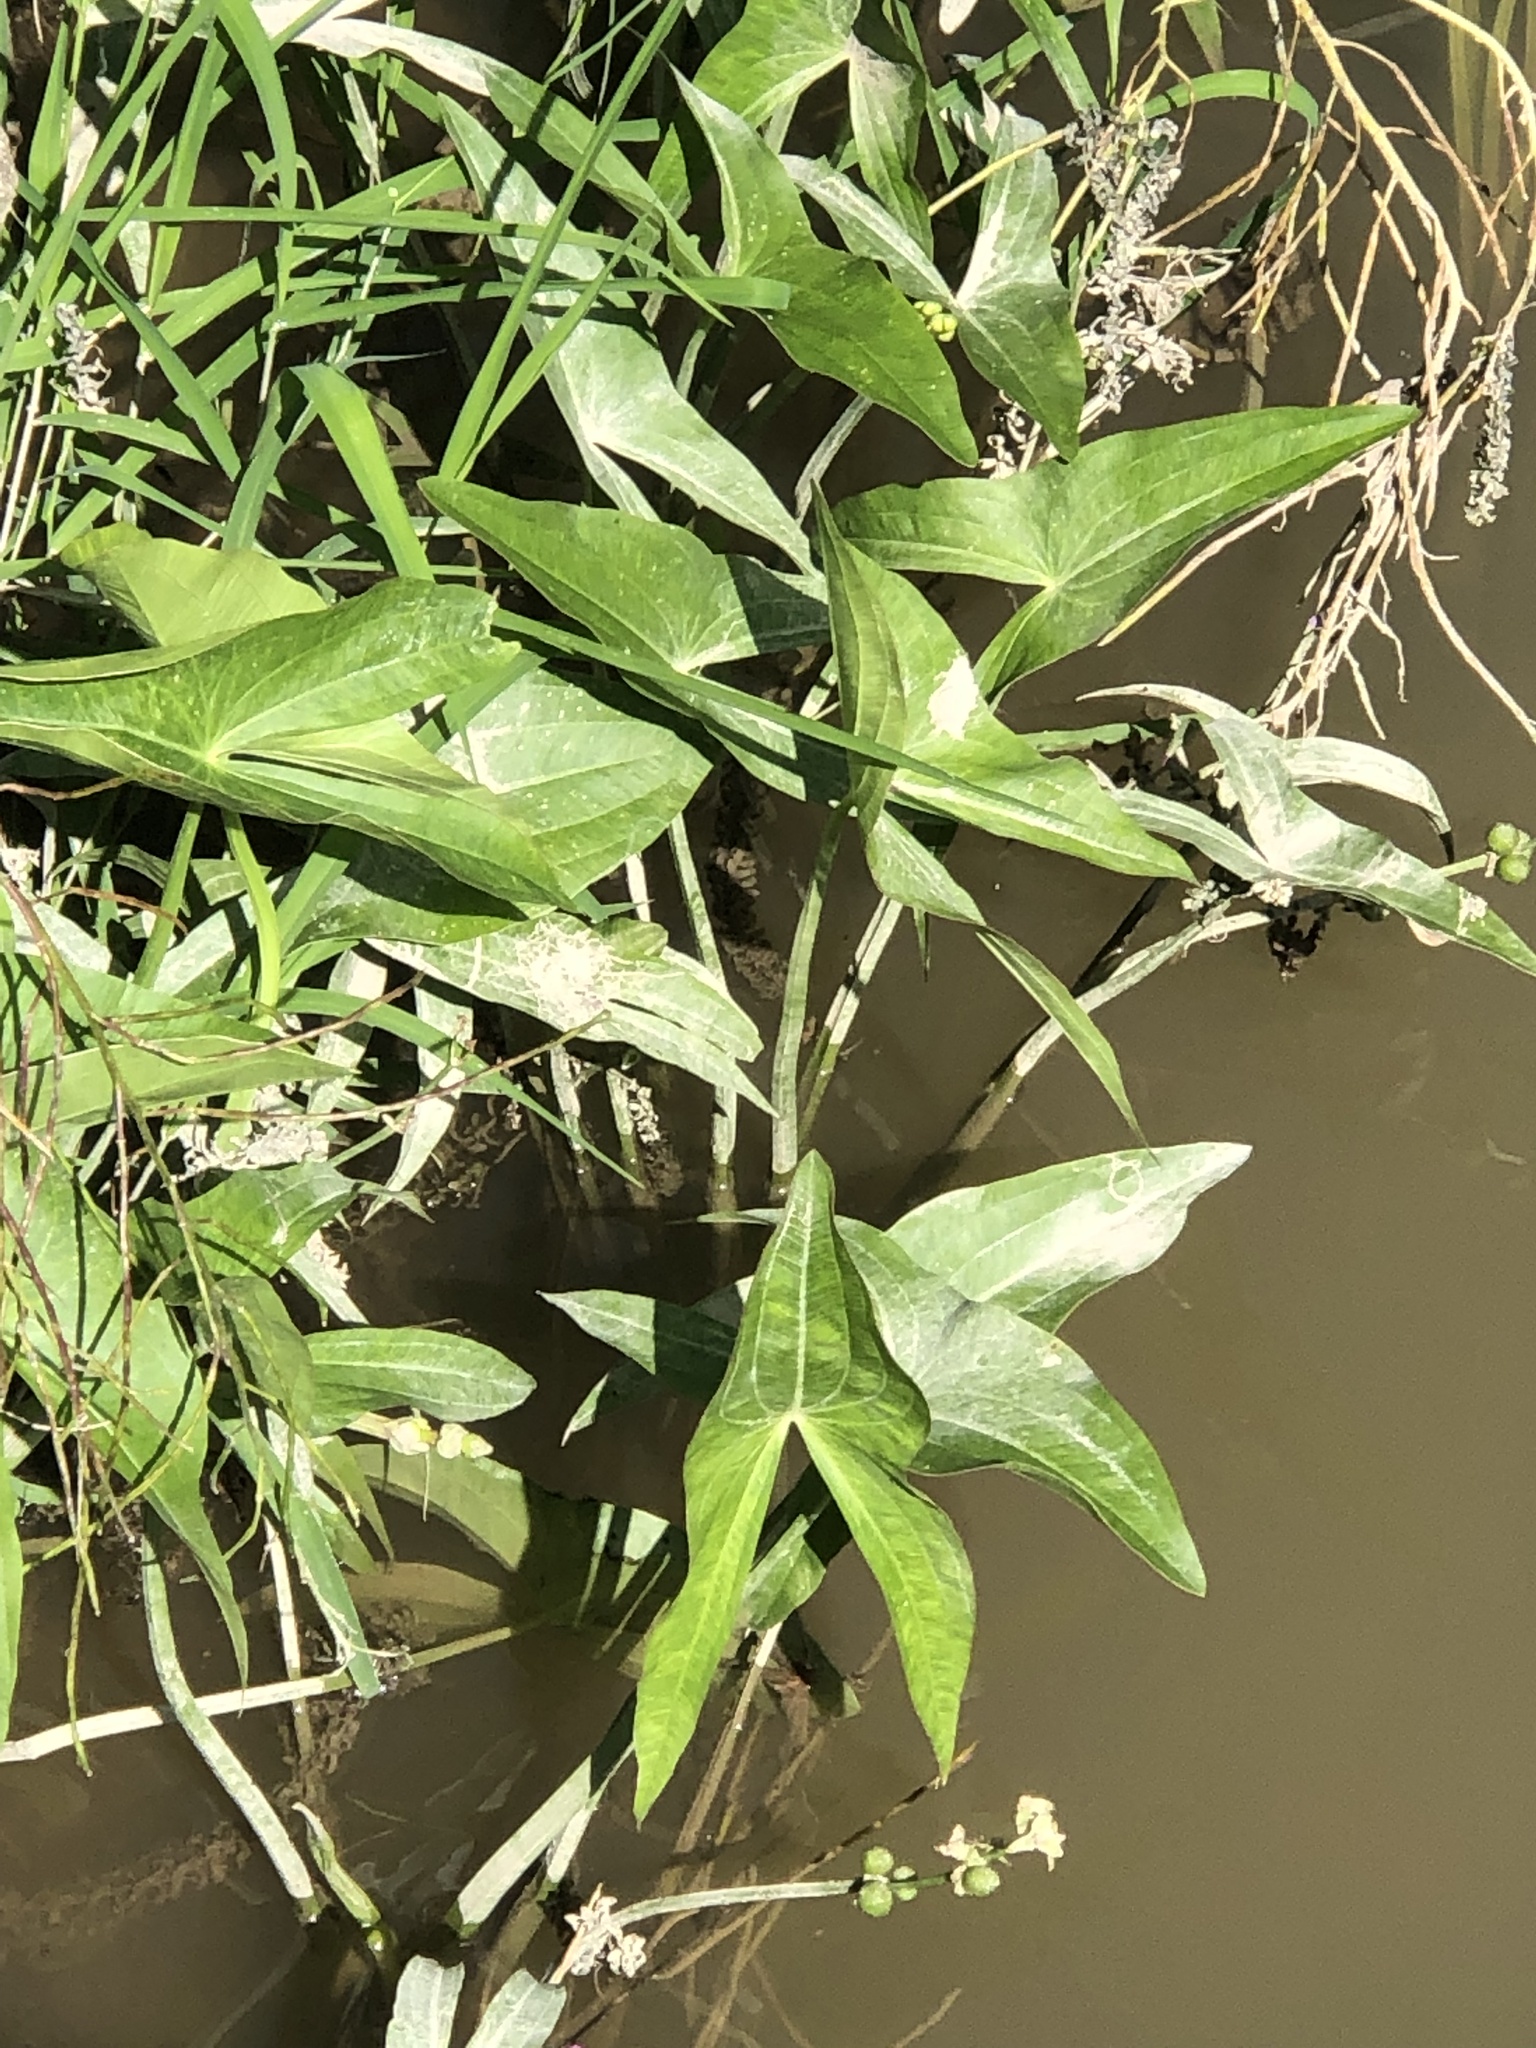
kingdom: Plantae
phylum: Tracheophyta
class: Liliopsida
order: Alismatales
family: Alismataceae
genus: Sagittaria
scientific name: Sagittaria latifolia
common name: Duck-potato
